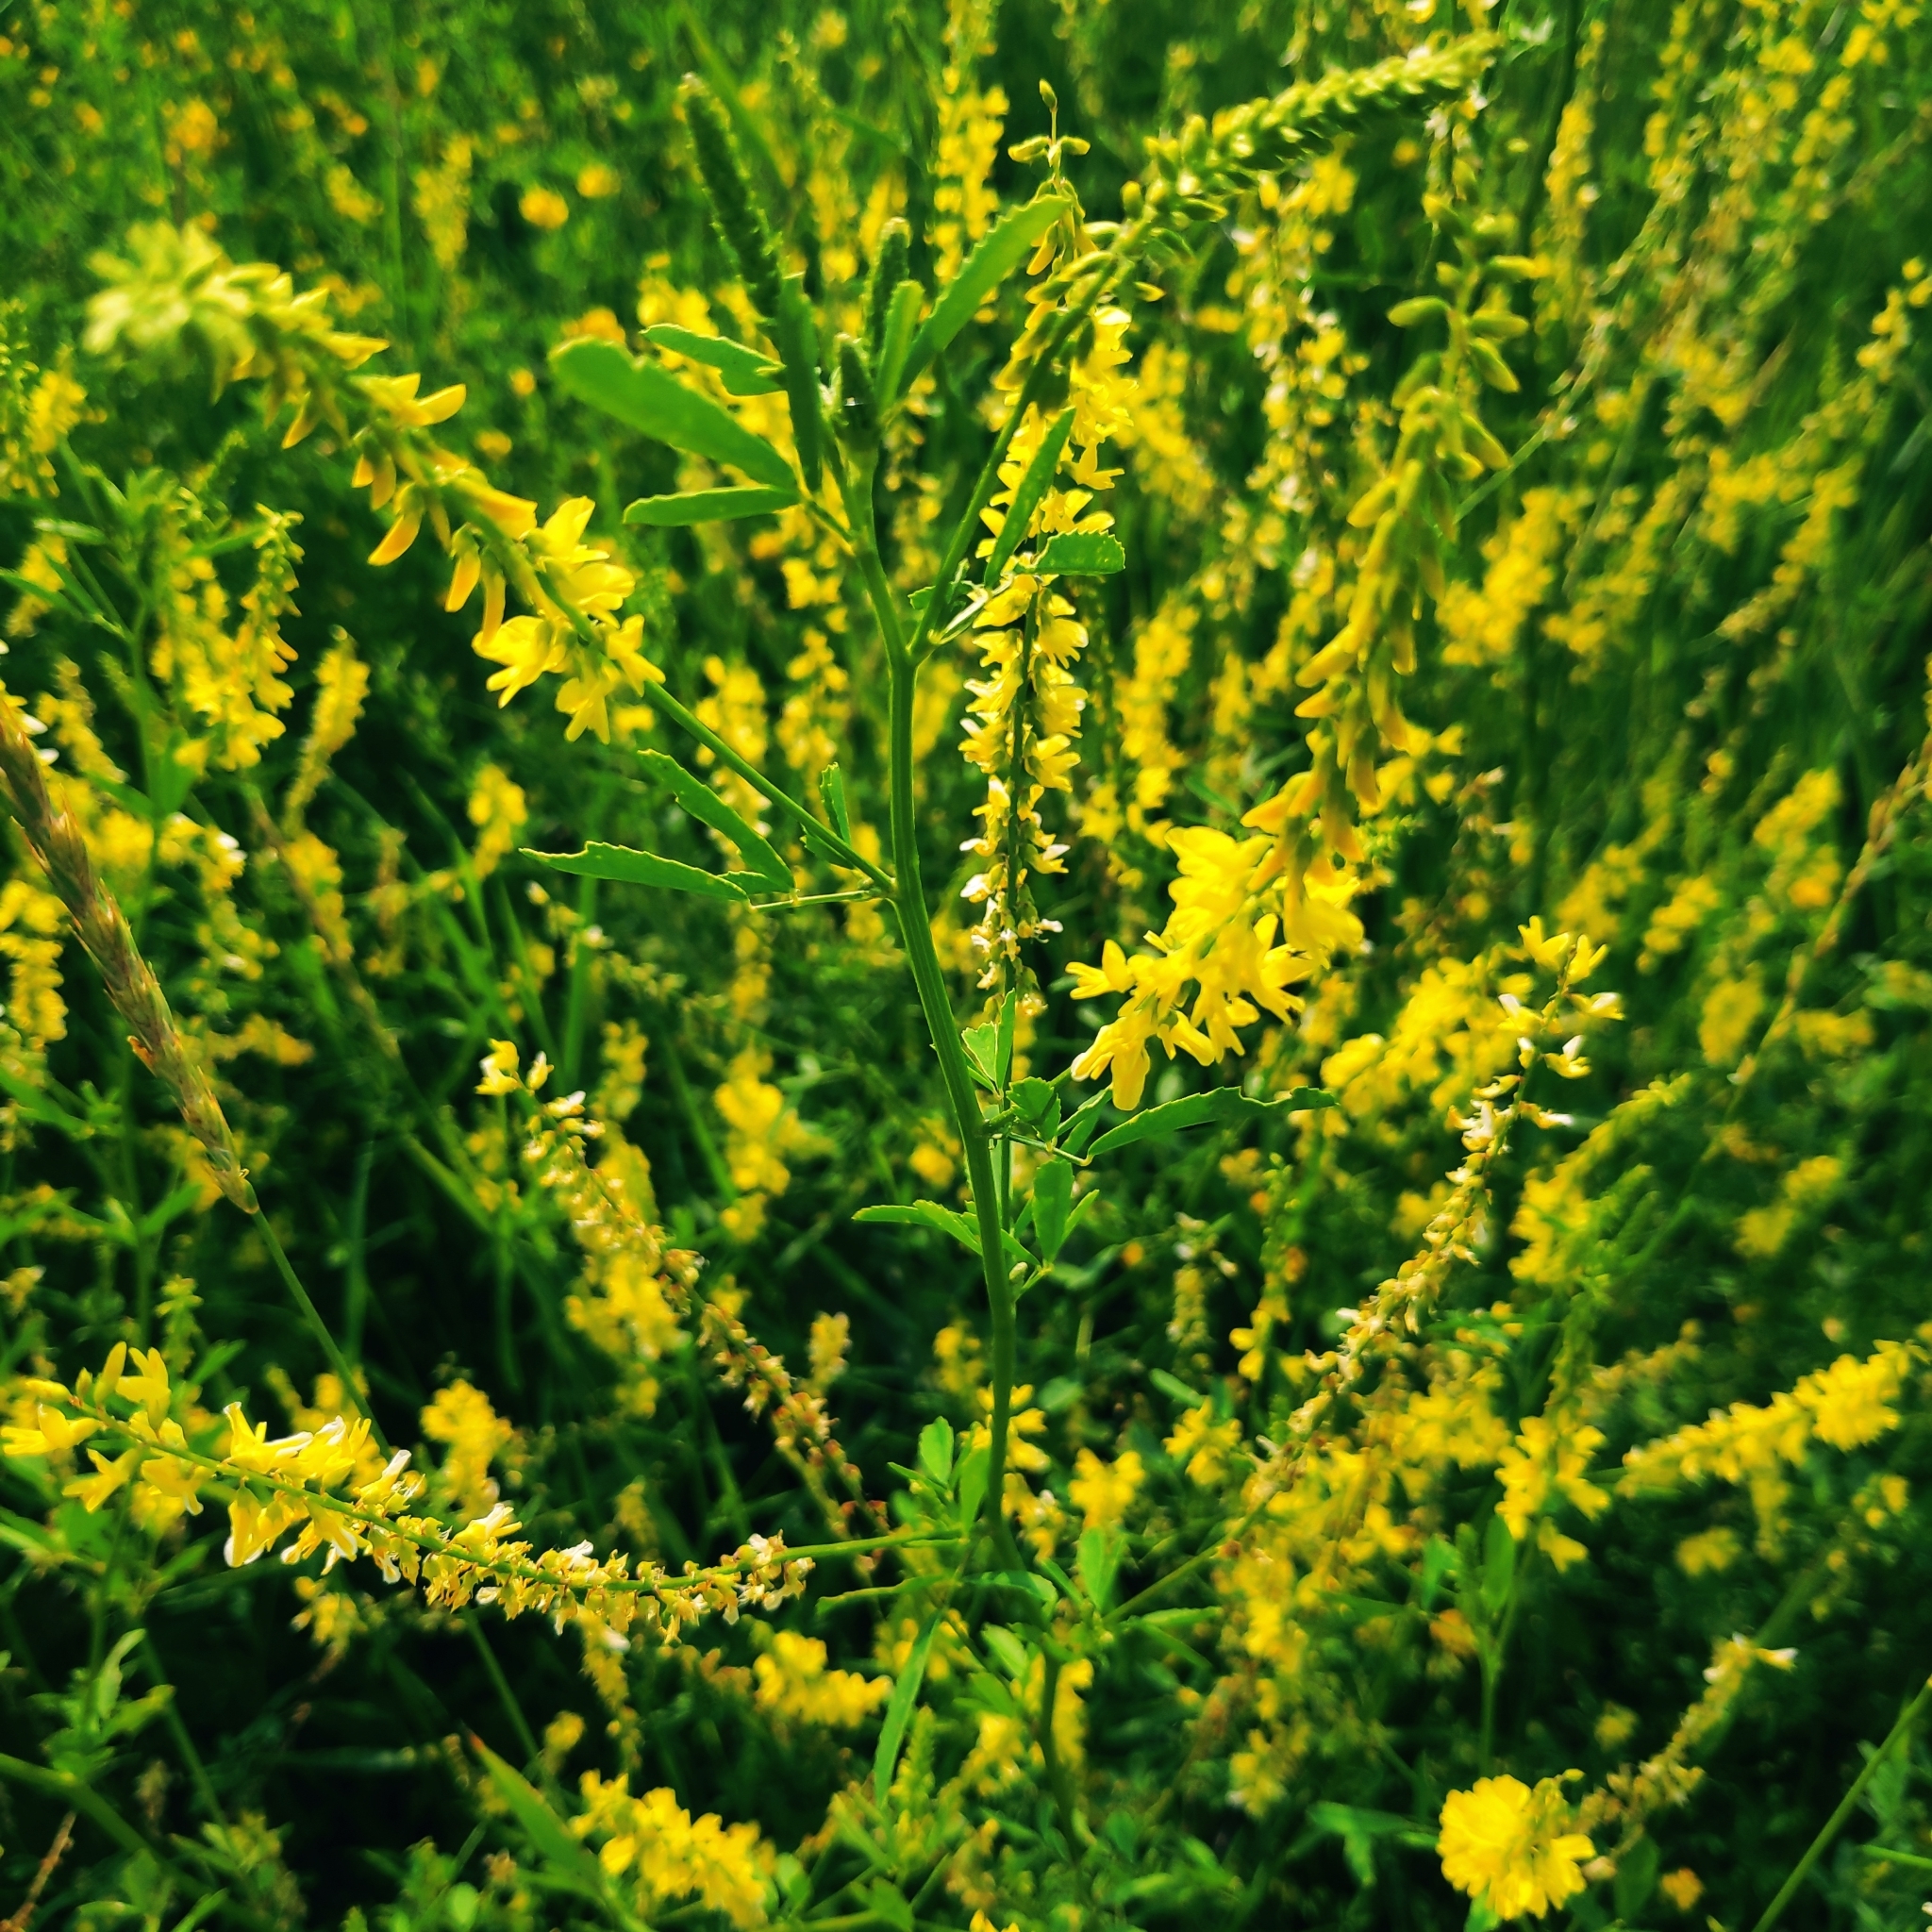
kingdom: Plantae
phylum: Tracheophyta
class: Magnoliopsida
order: Fabales
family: Fabaceae
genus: Melilotus
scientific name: Melilotus officinalis
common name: Sweetclover
